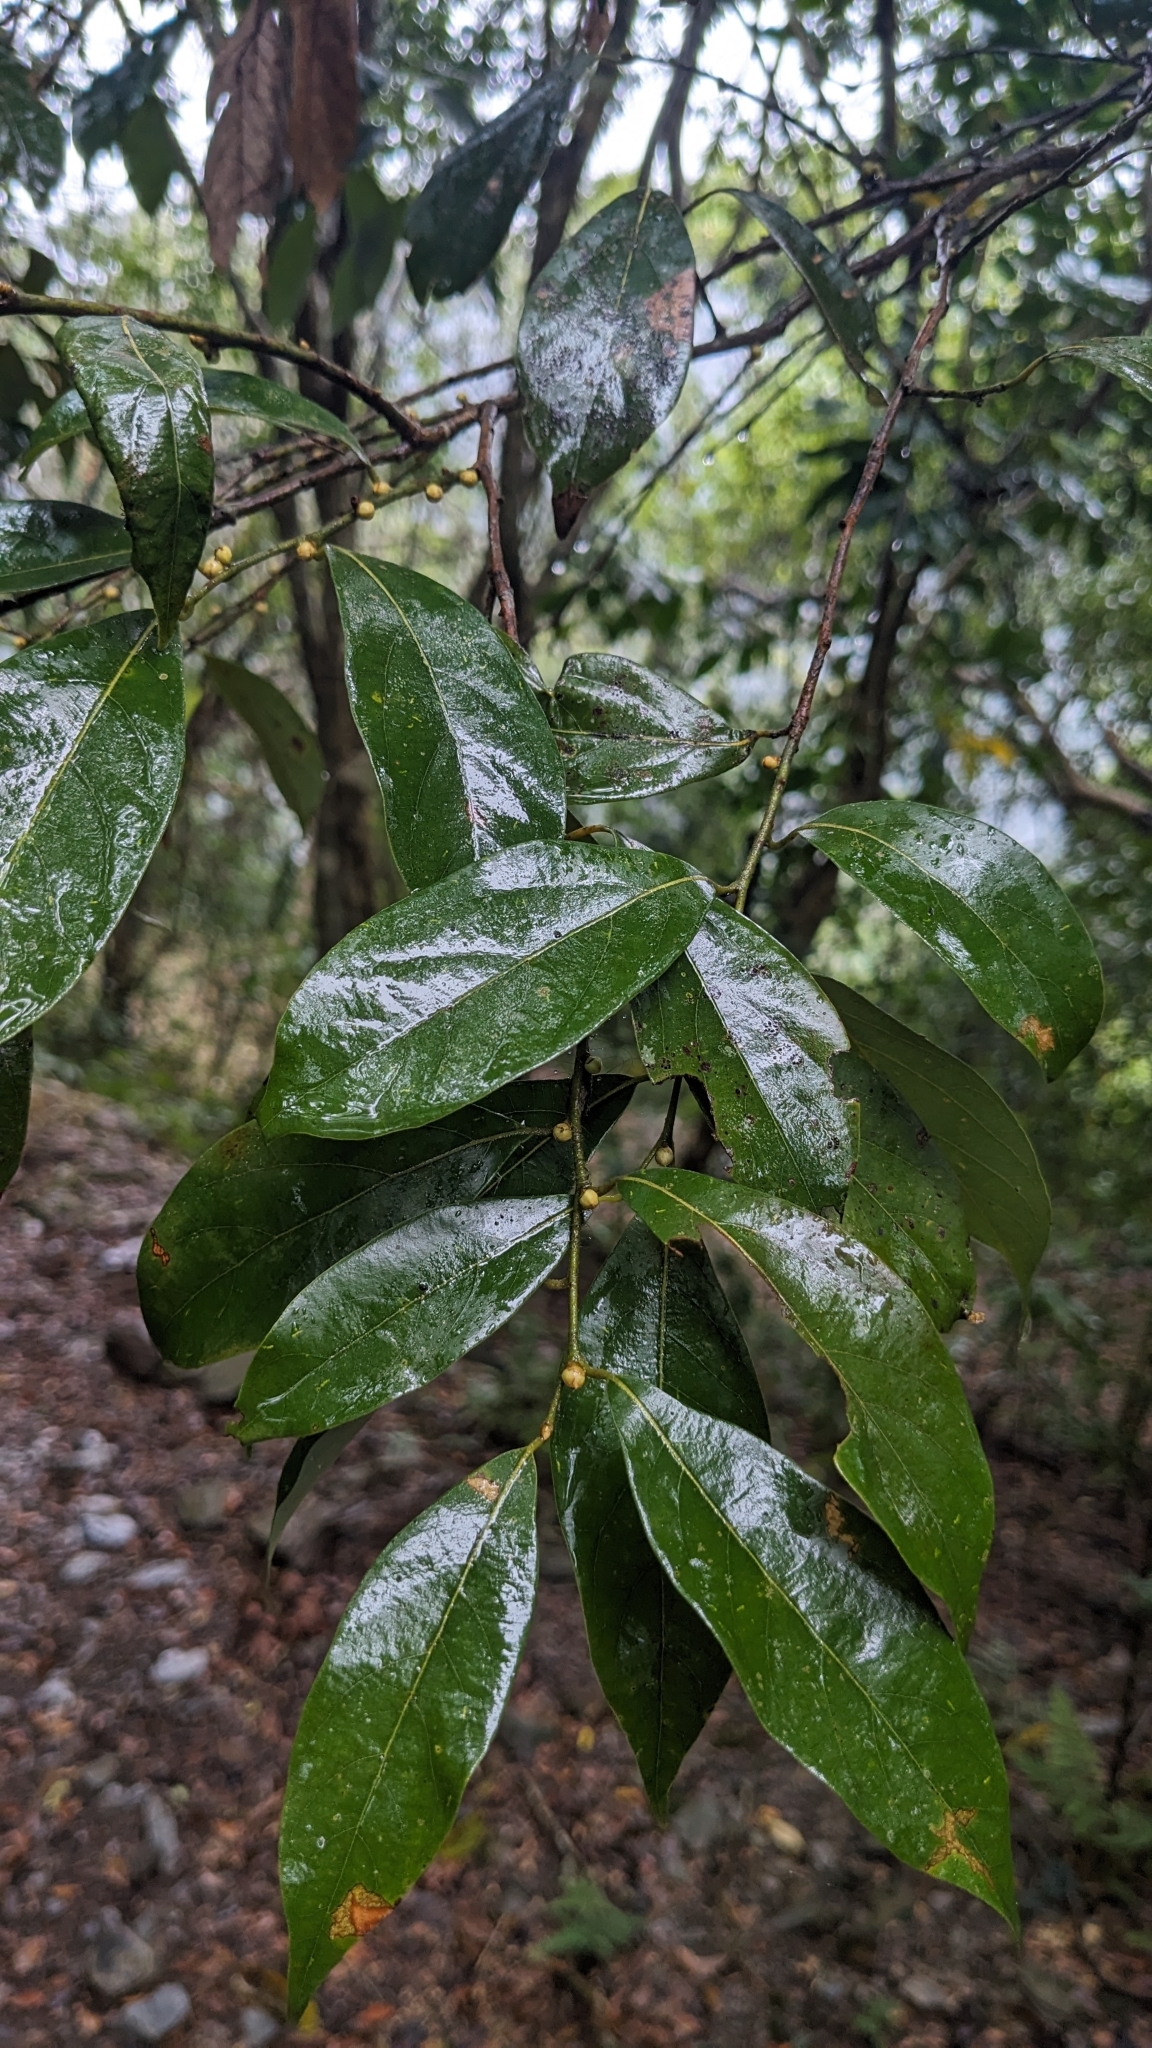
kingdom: Plantae
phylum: Tracheophyta
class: Magnoliopsida
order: Laurales
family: Lauraceae
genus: Lindera
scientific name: Lindera communis
